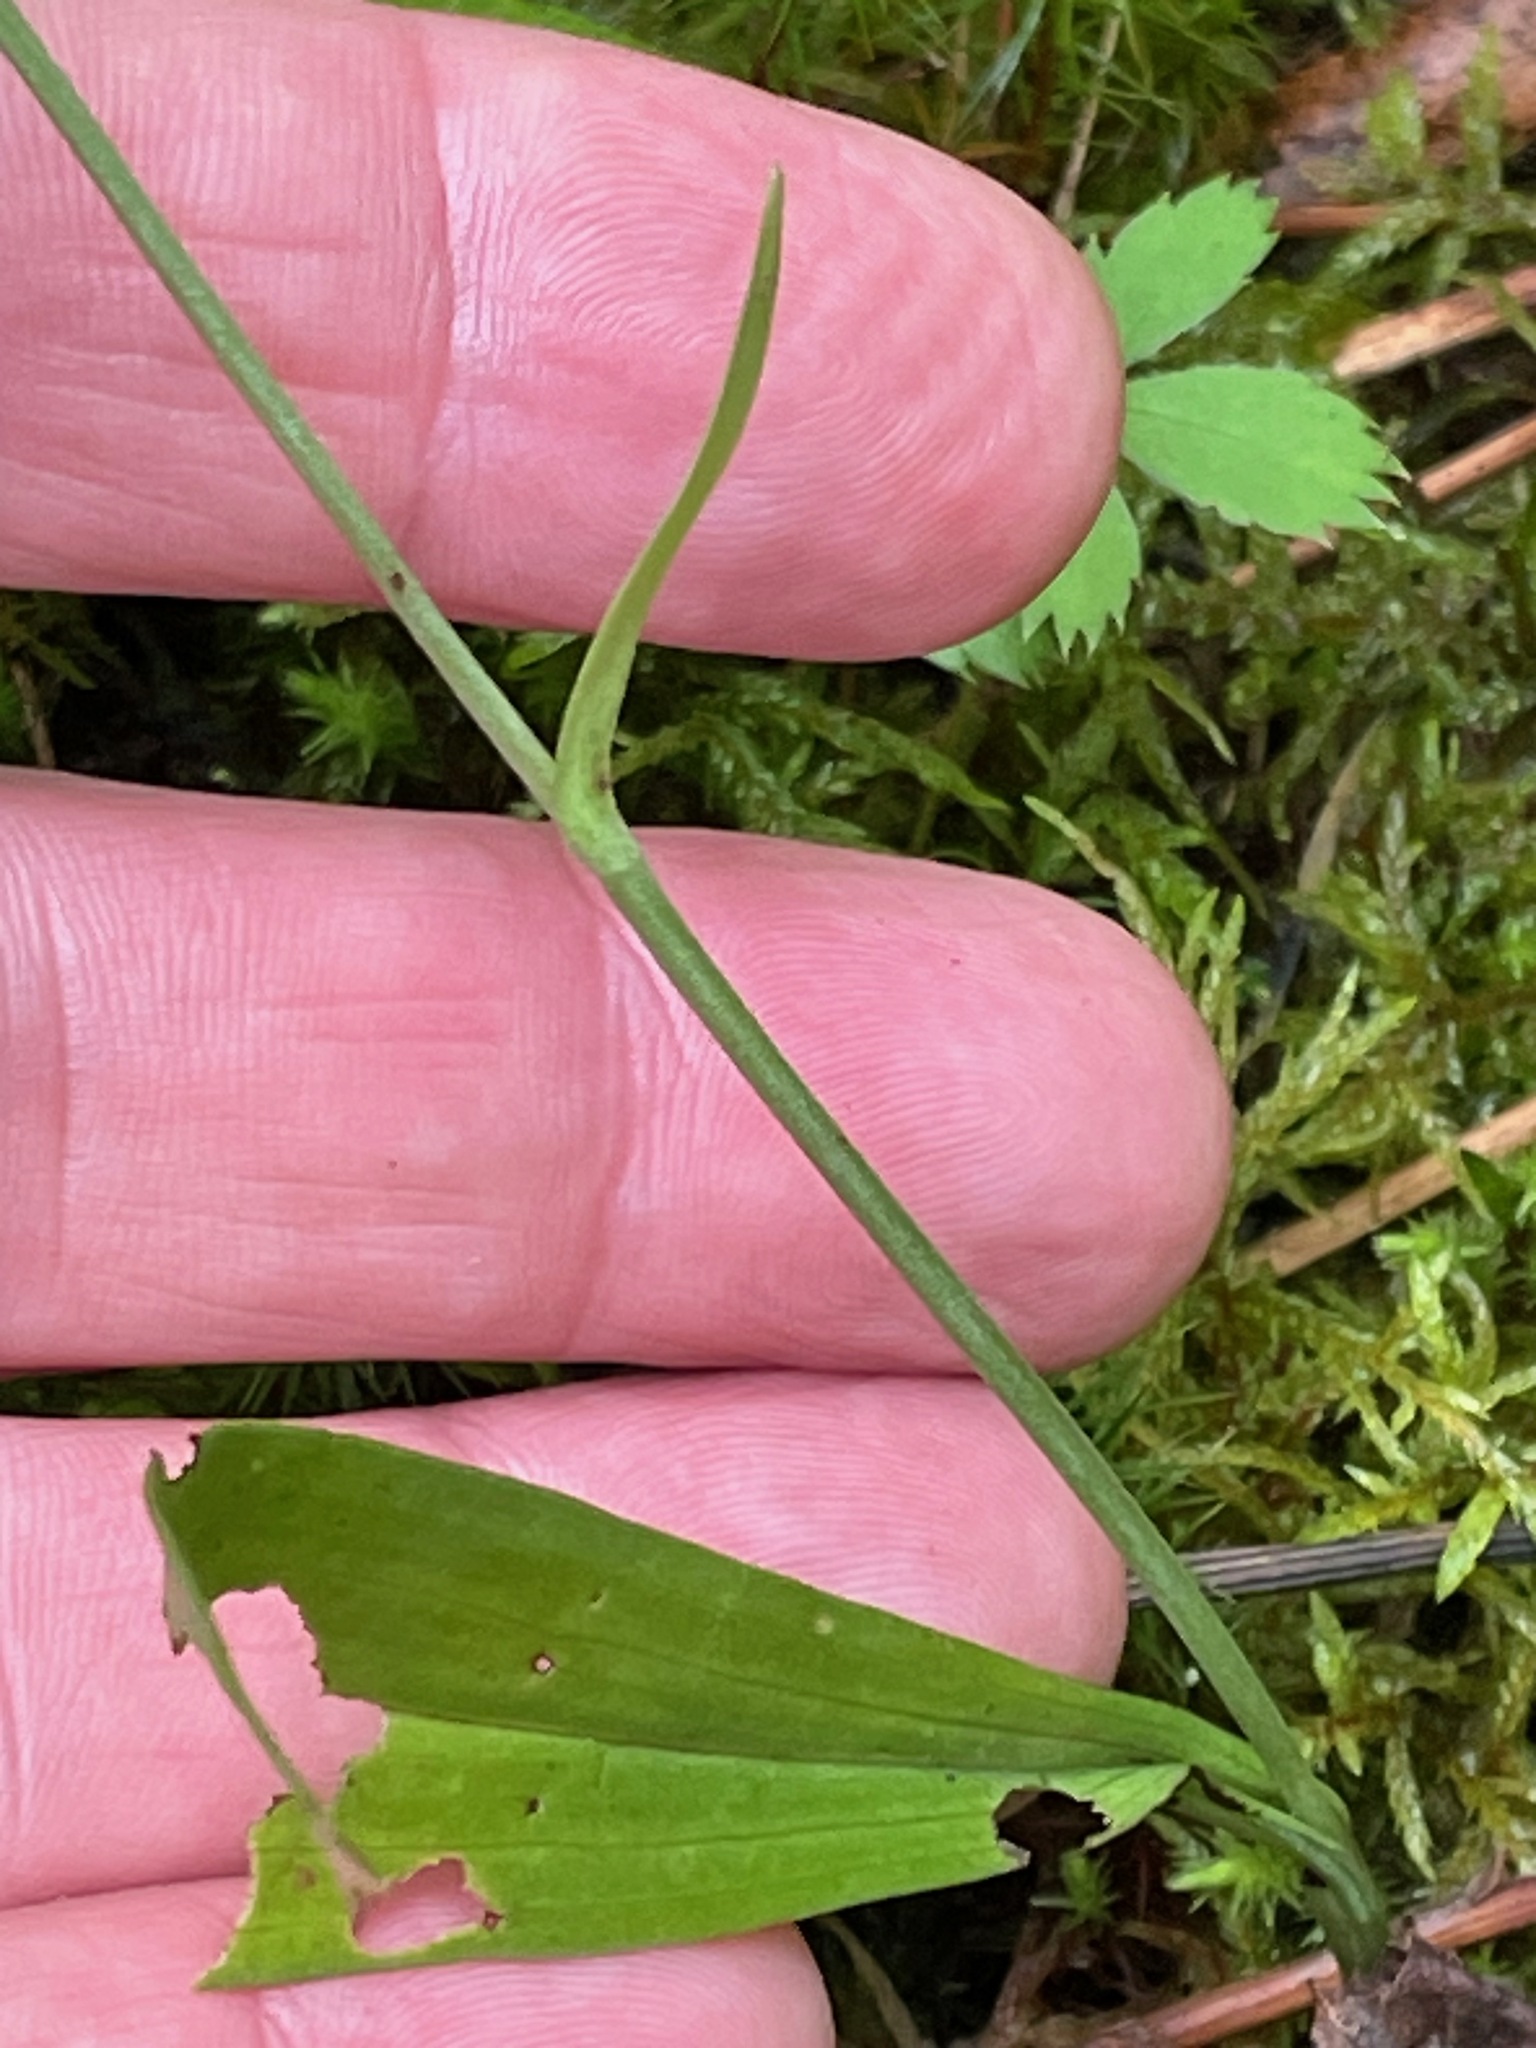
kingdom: Plantae
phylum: Tracheophyta
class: Liliopsida
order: Asparagales
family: Orchidaceae
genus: Platanthera
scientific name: Platanthera clavellata
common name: Club-spur orchid
